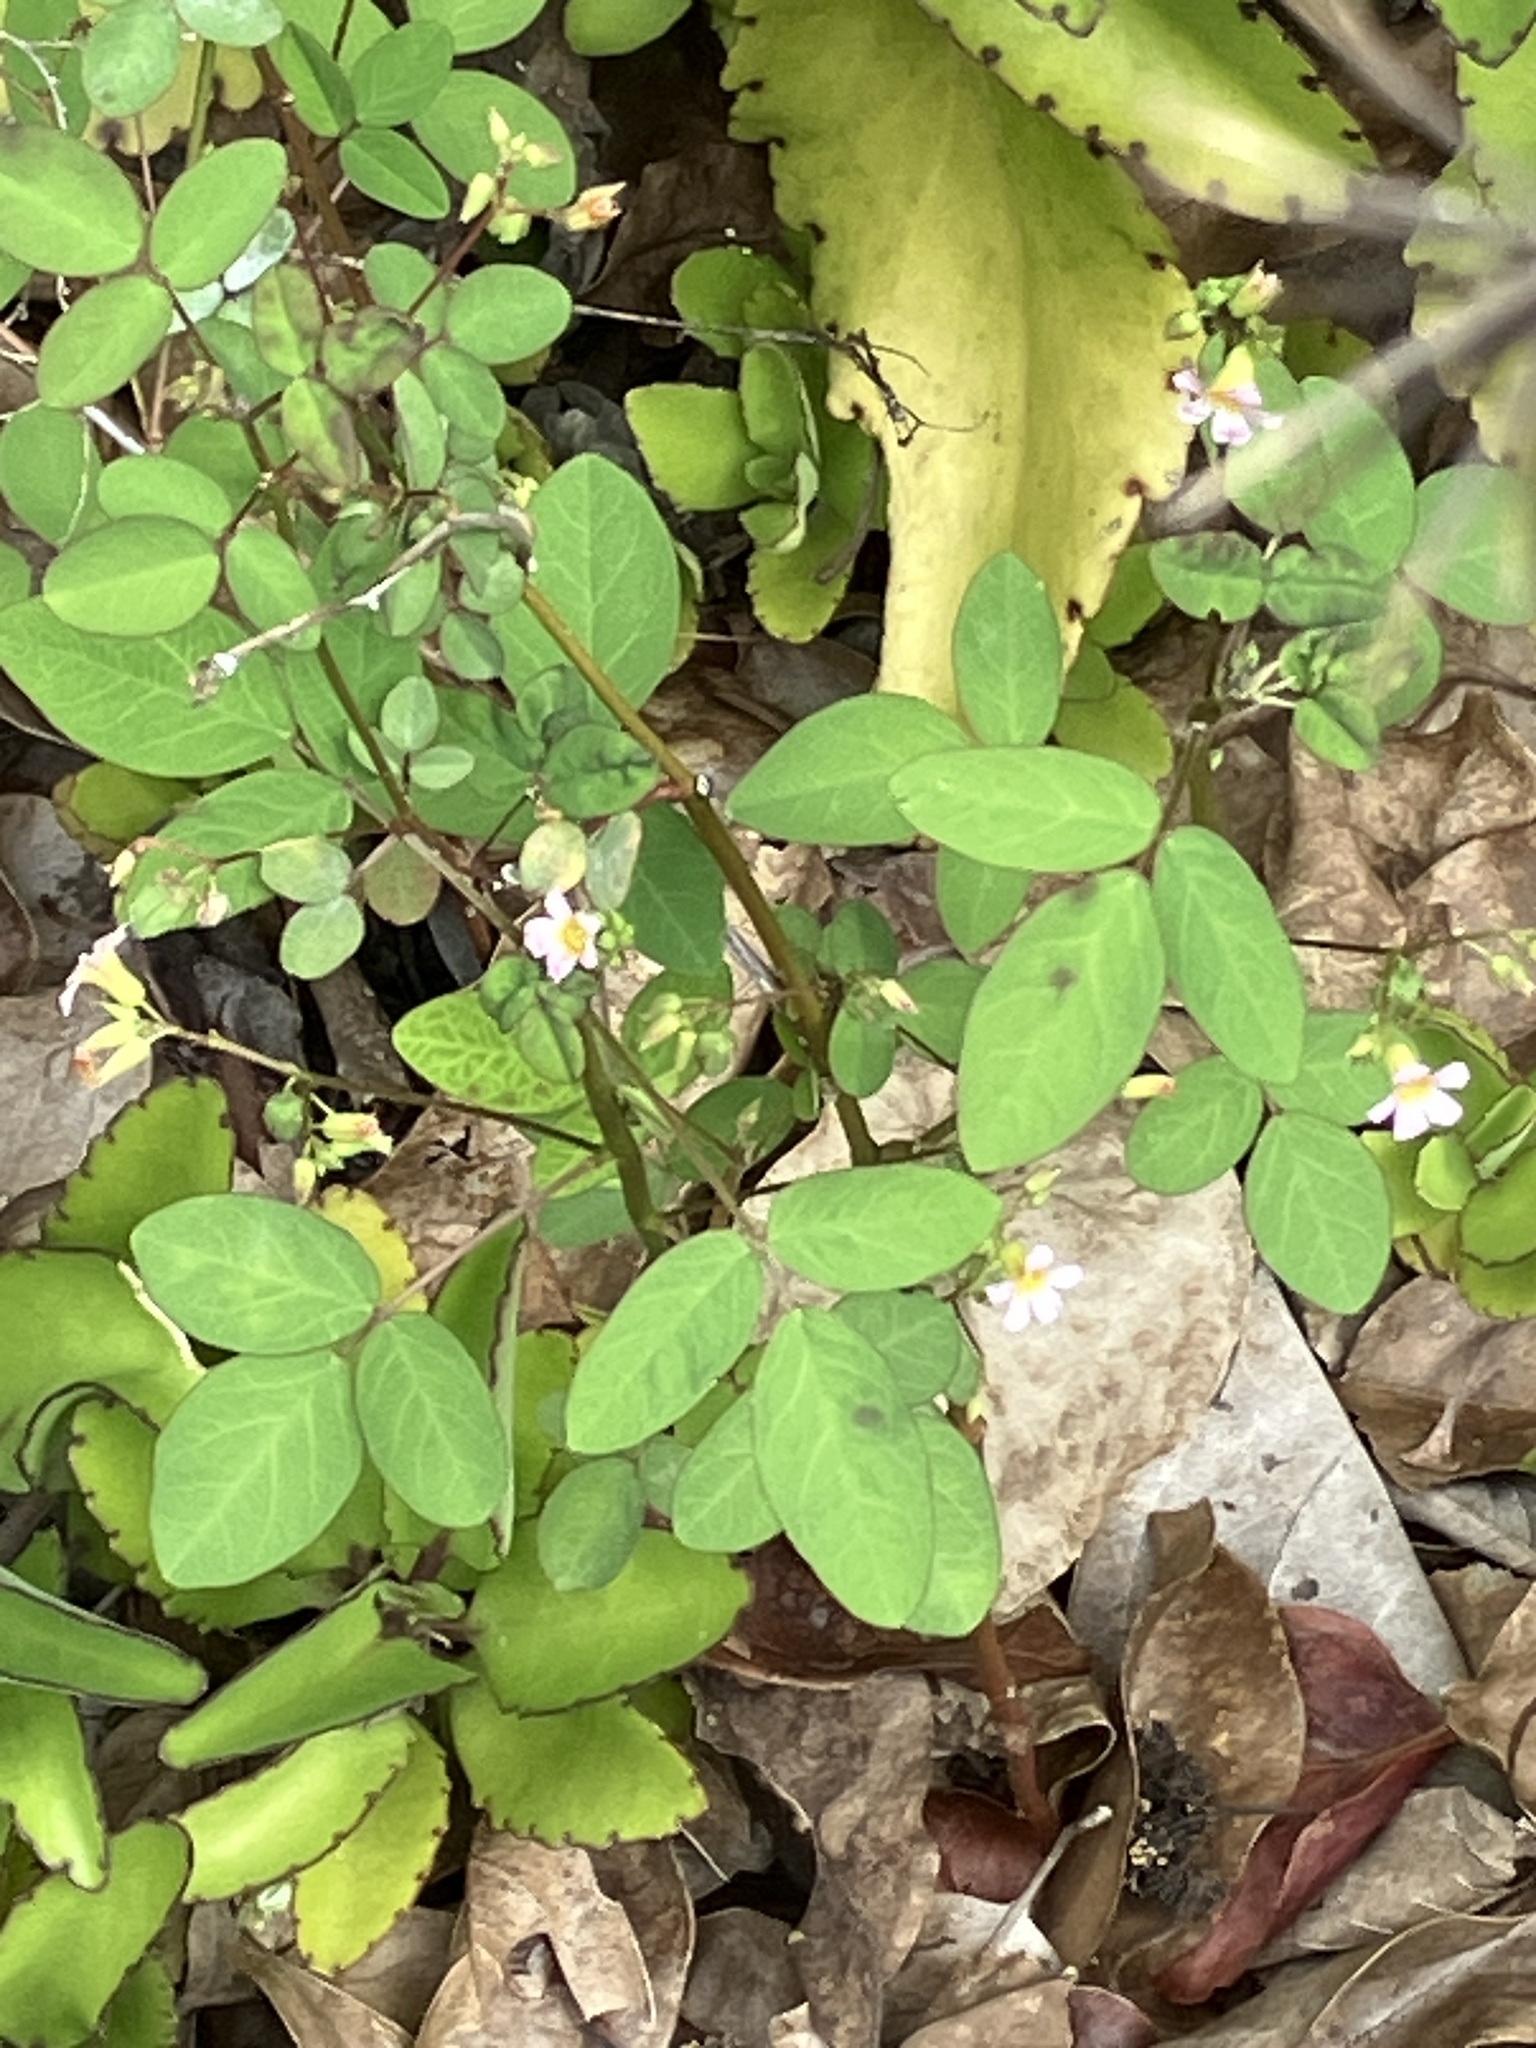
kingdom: Plantae
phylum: Tracheophyta
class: Magnoliopsida
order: Oxalidales
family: Oxalidaceae
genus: Oxalis
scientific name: Oxalis barrelieri
